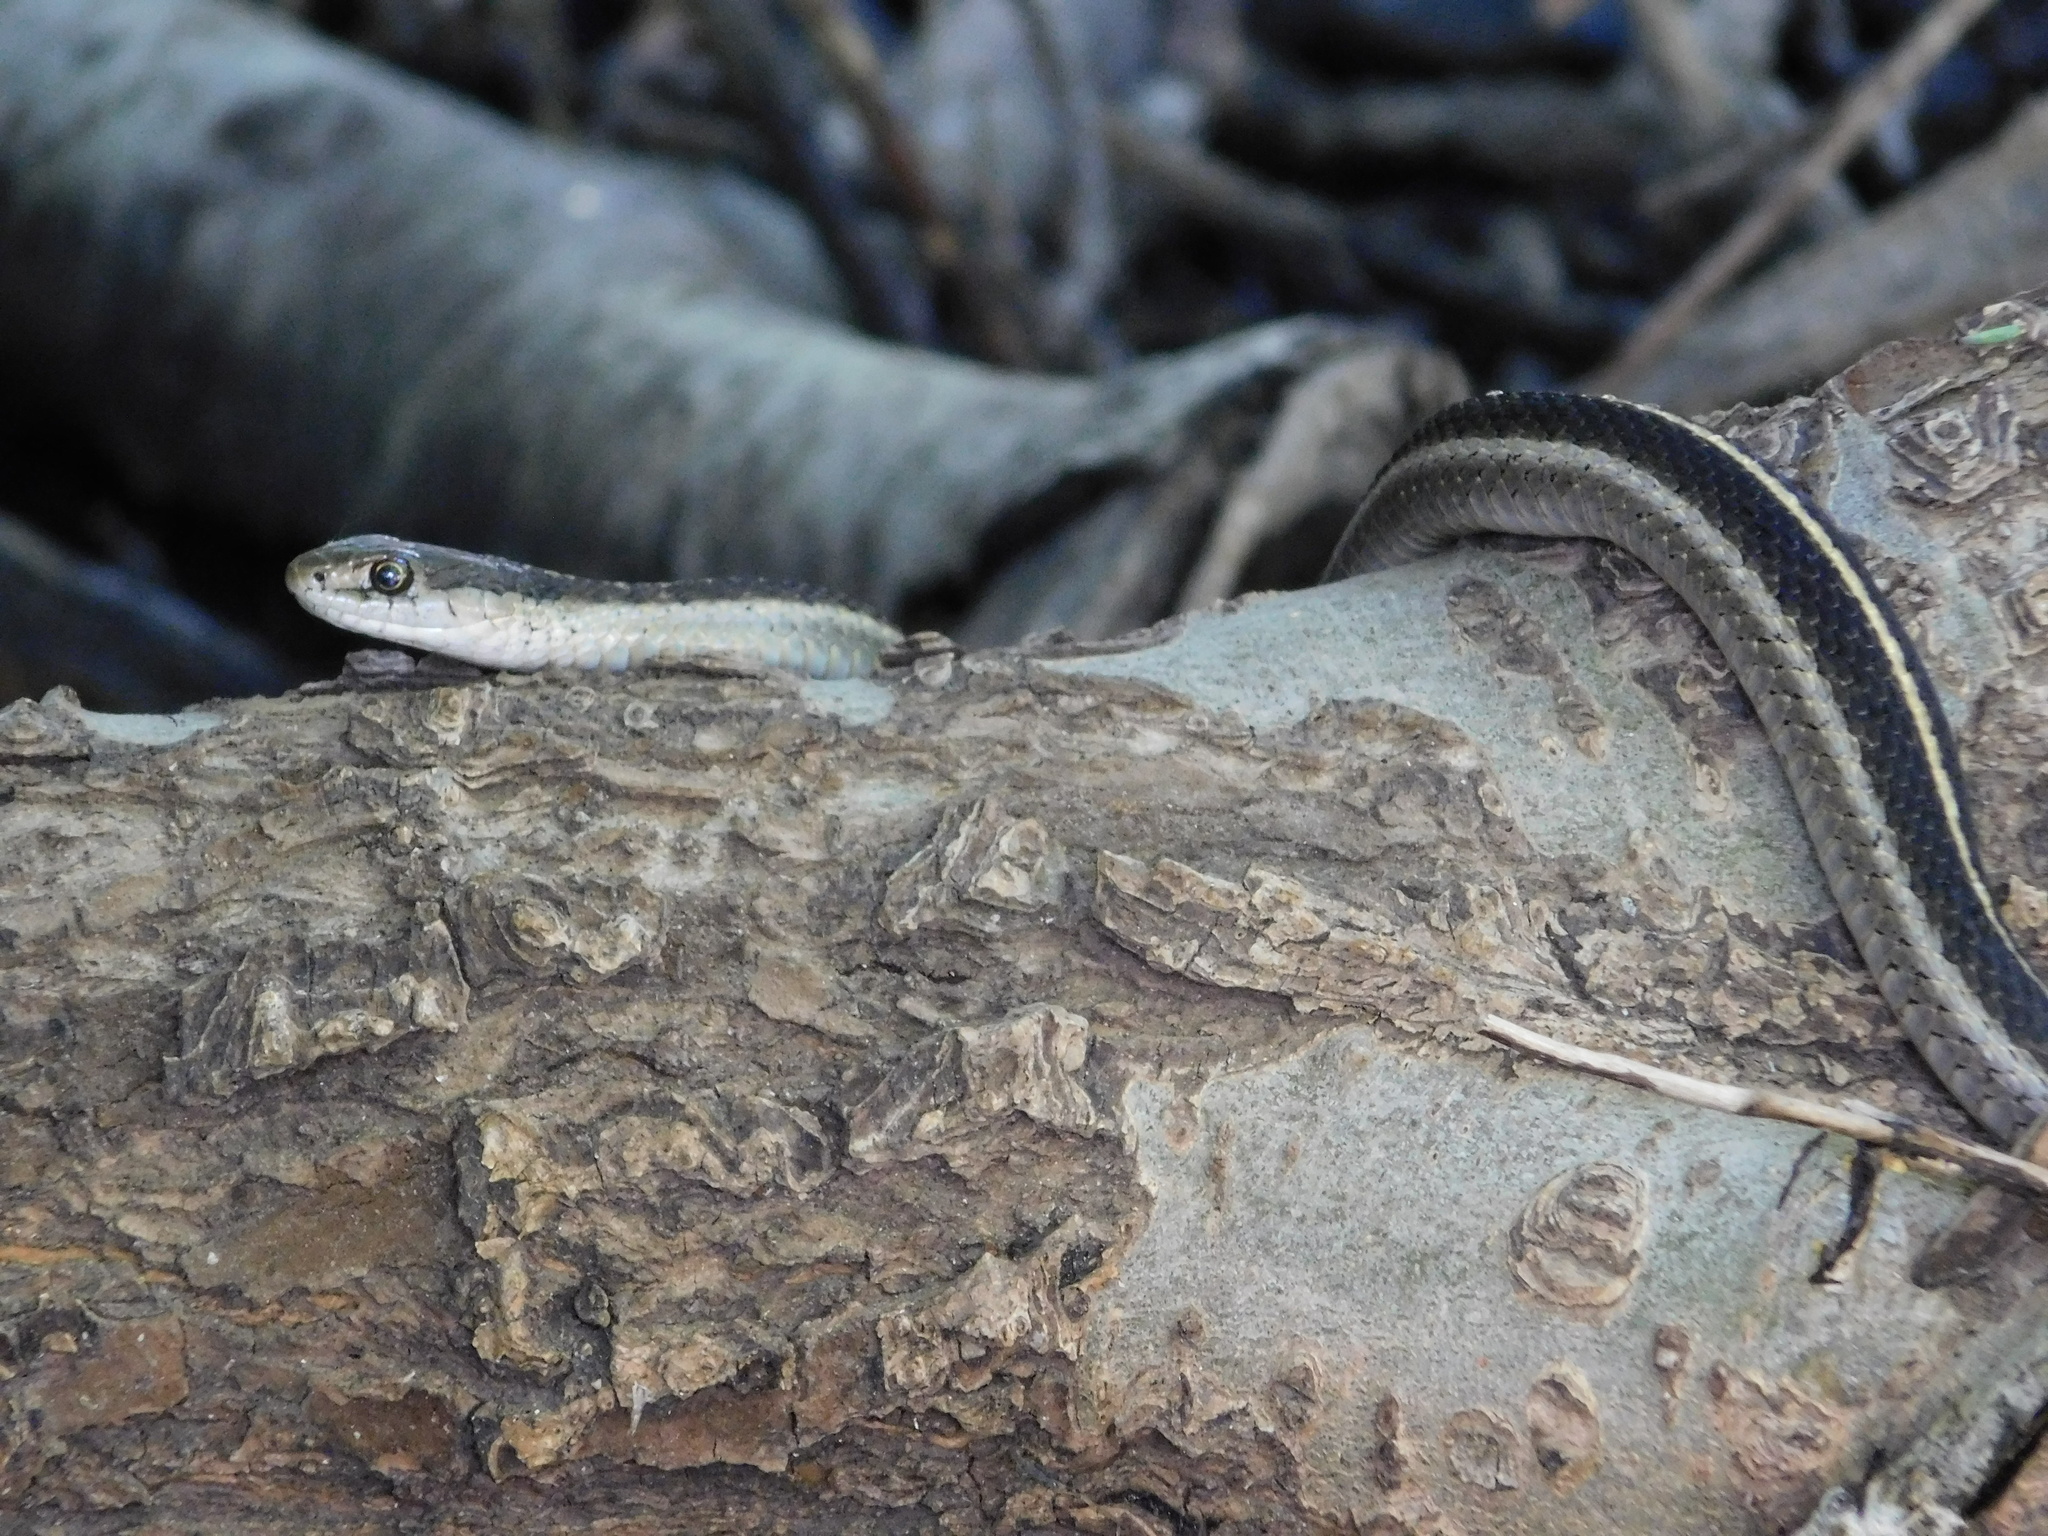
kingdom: Animalia
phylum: Chordata
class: Squamata
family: Colubridae
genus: Thamnophis
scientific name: Thamnophis elegans
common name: Western terrestrial garter snake
